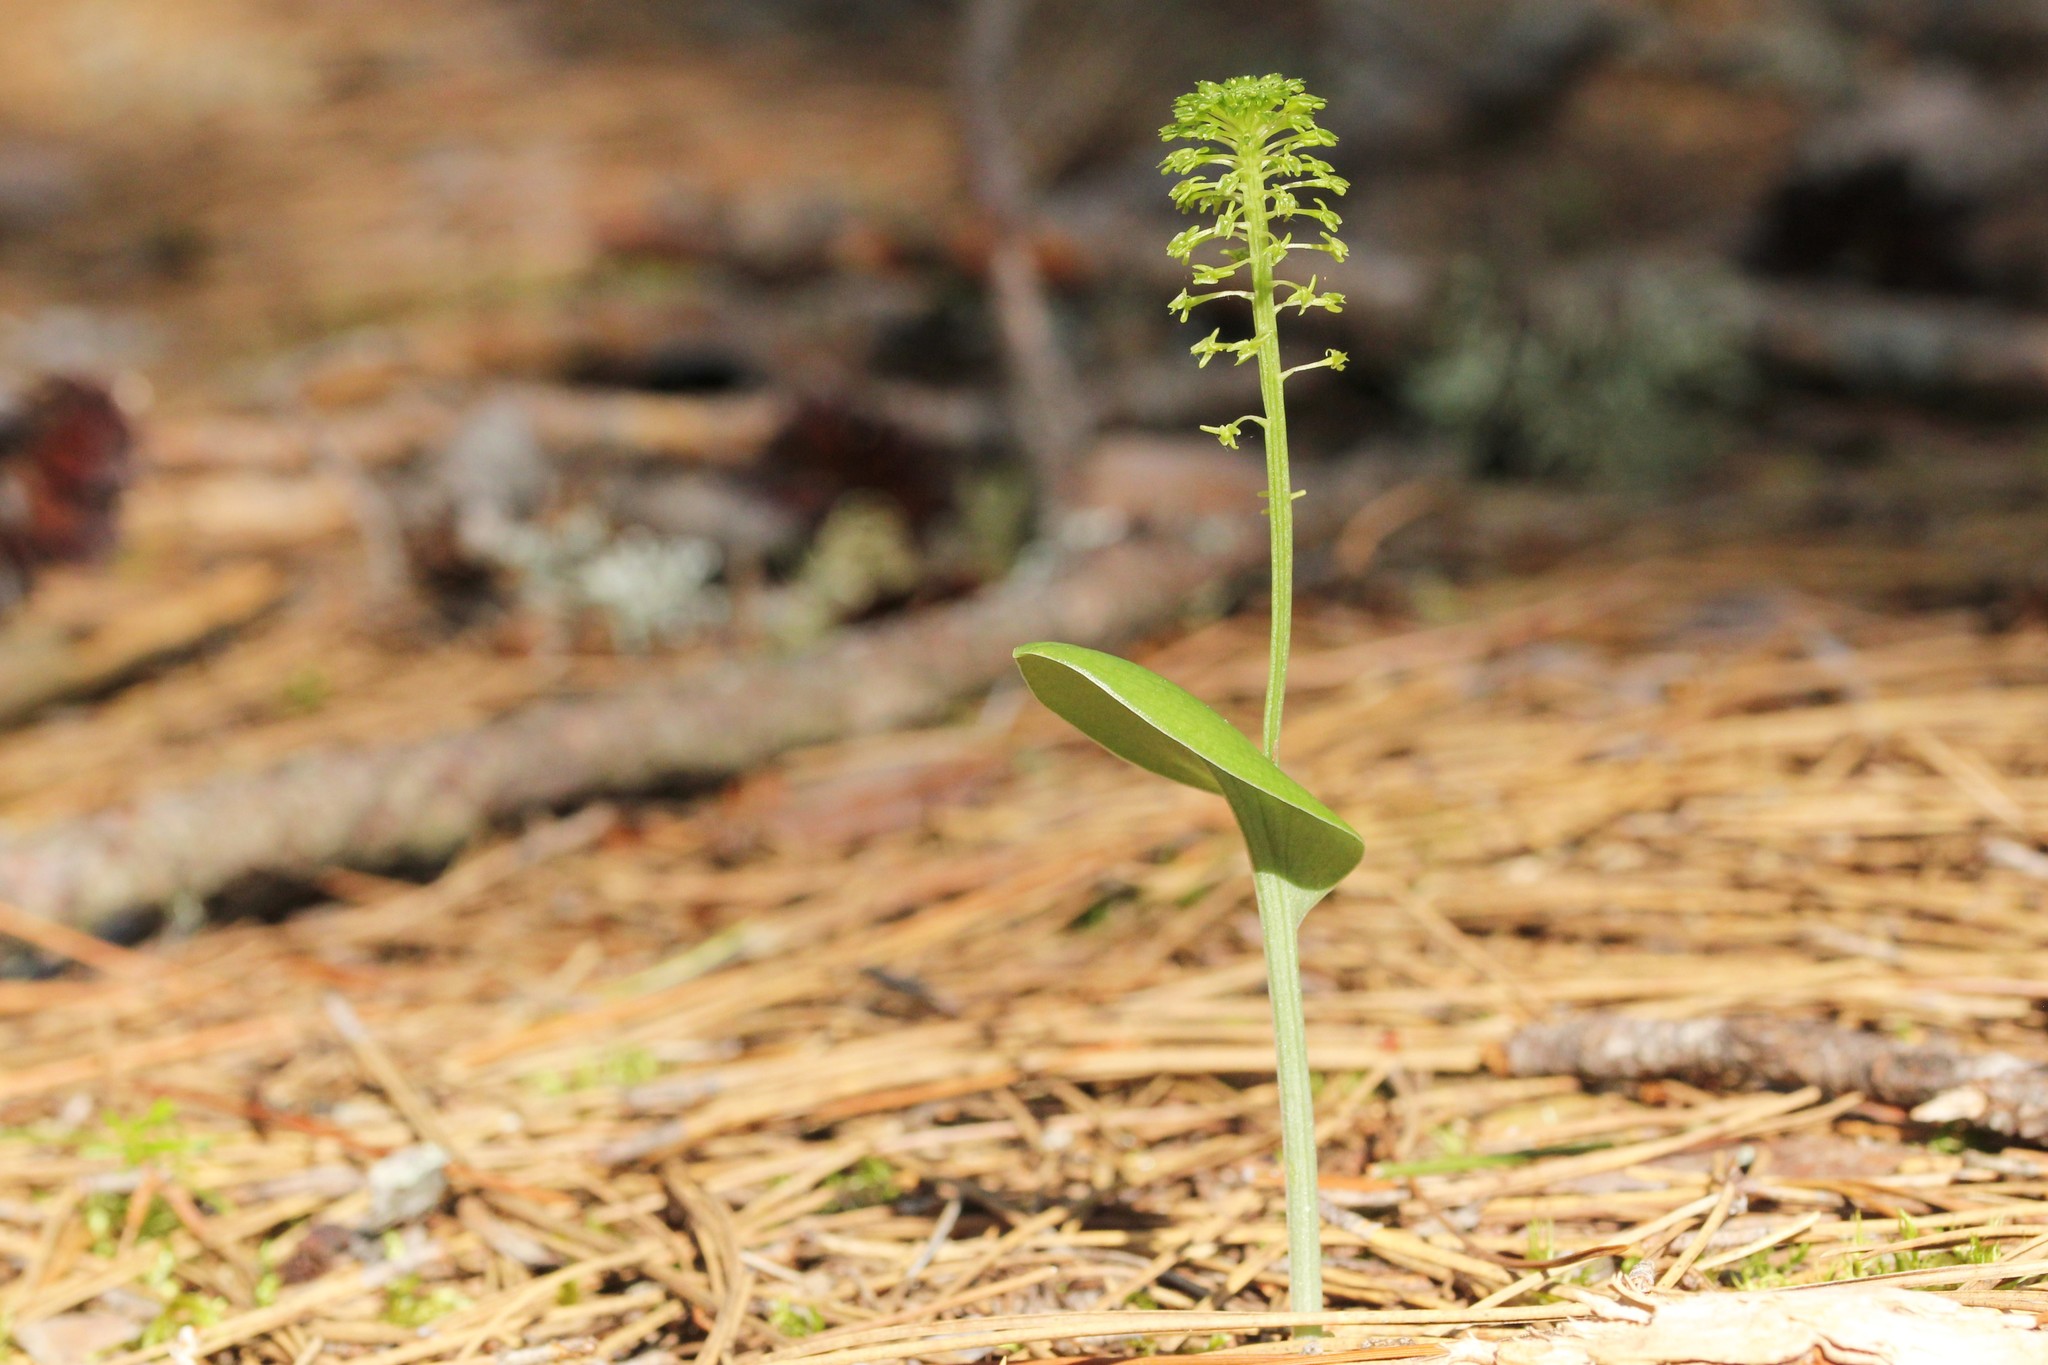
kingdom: Plantae
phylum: Tracheophyta
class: Liliopsida
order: Asparagales
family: Orchidaceae
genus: Malaxis
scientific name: Malaxis unifolia
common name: Green adder's-mouth
